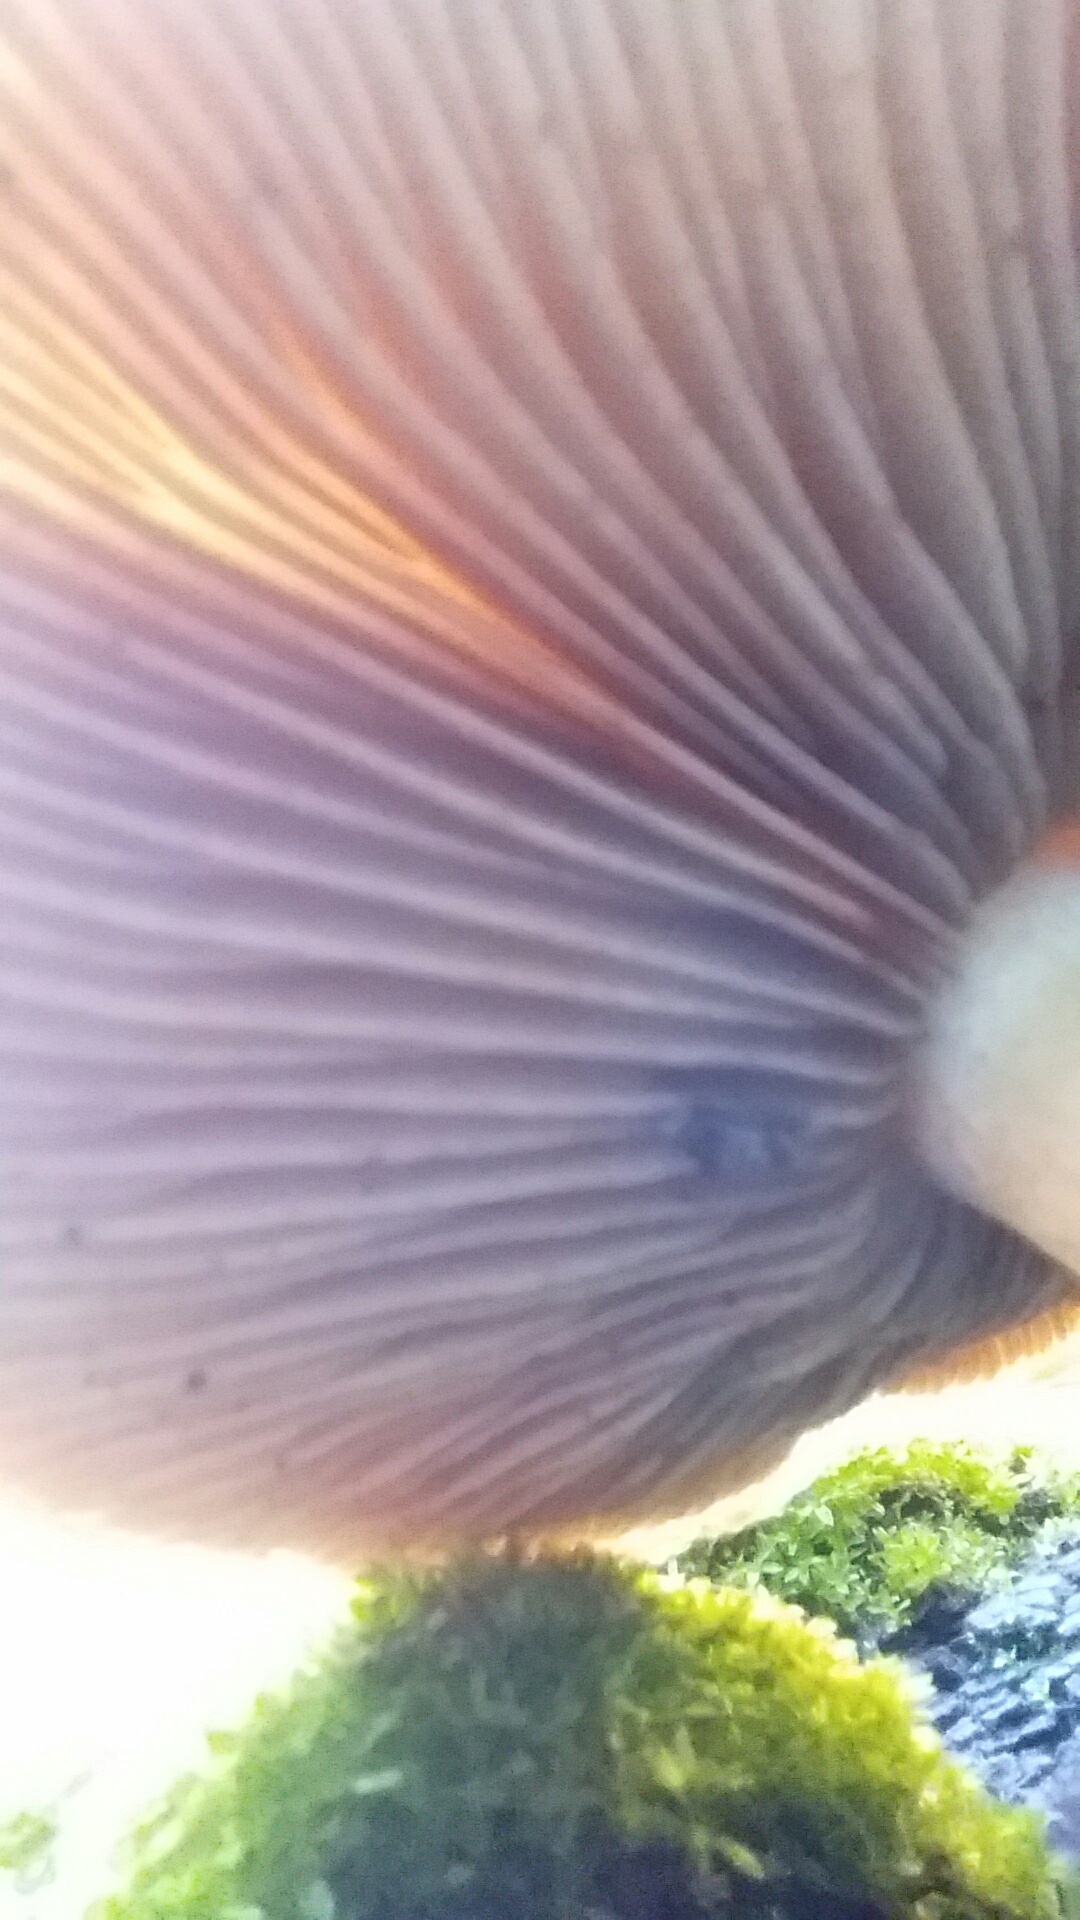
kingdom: Fungi
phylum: Basidiomycota
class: Agaricomycetes
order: Agaricales
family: Strophariaceae
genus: Pholiota
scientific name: Pholiota carbonaria
